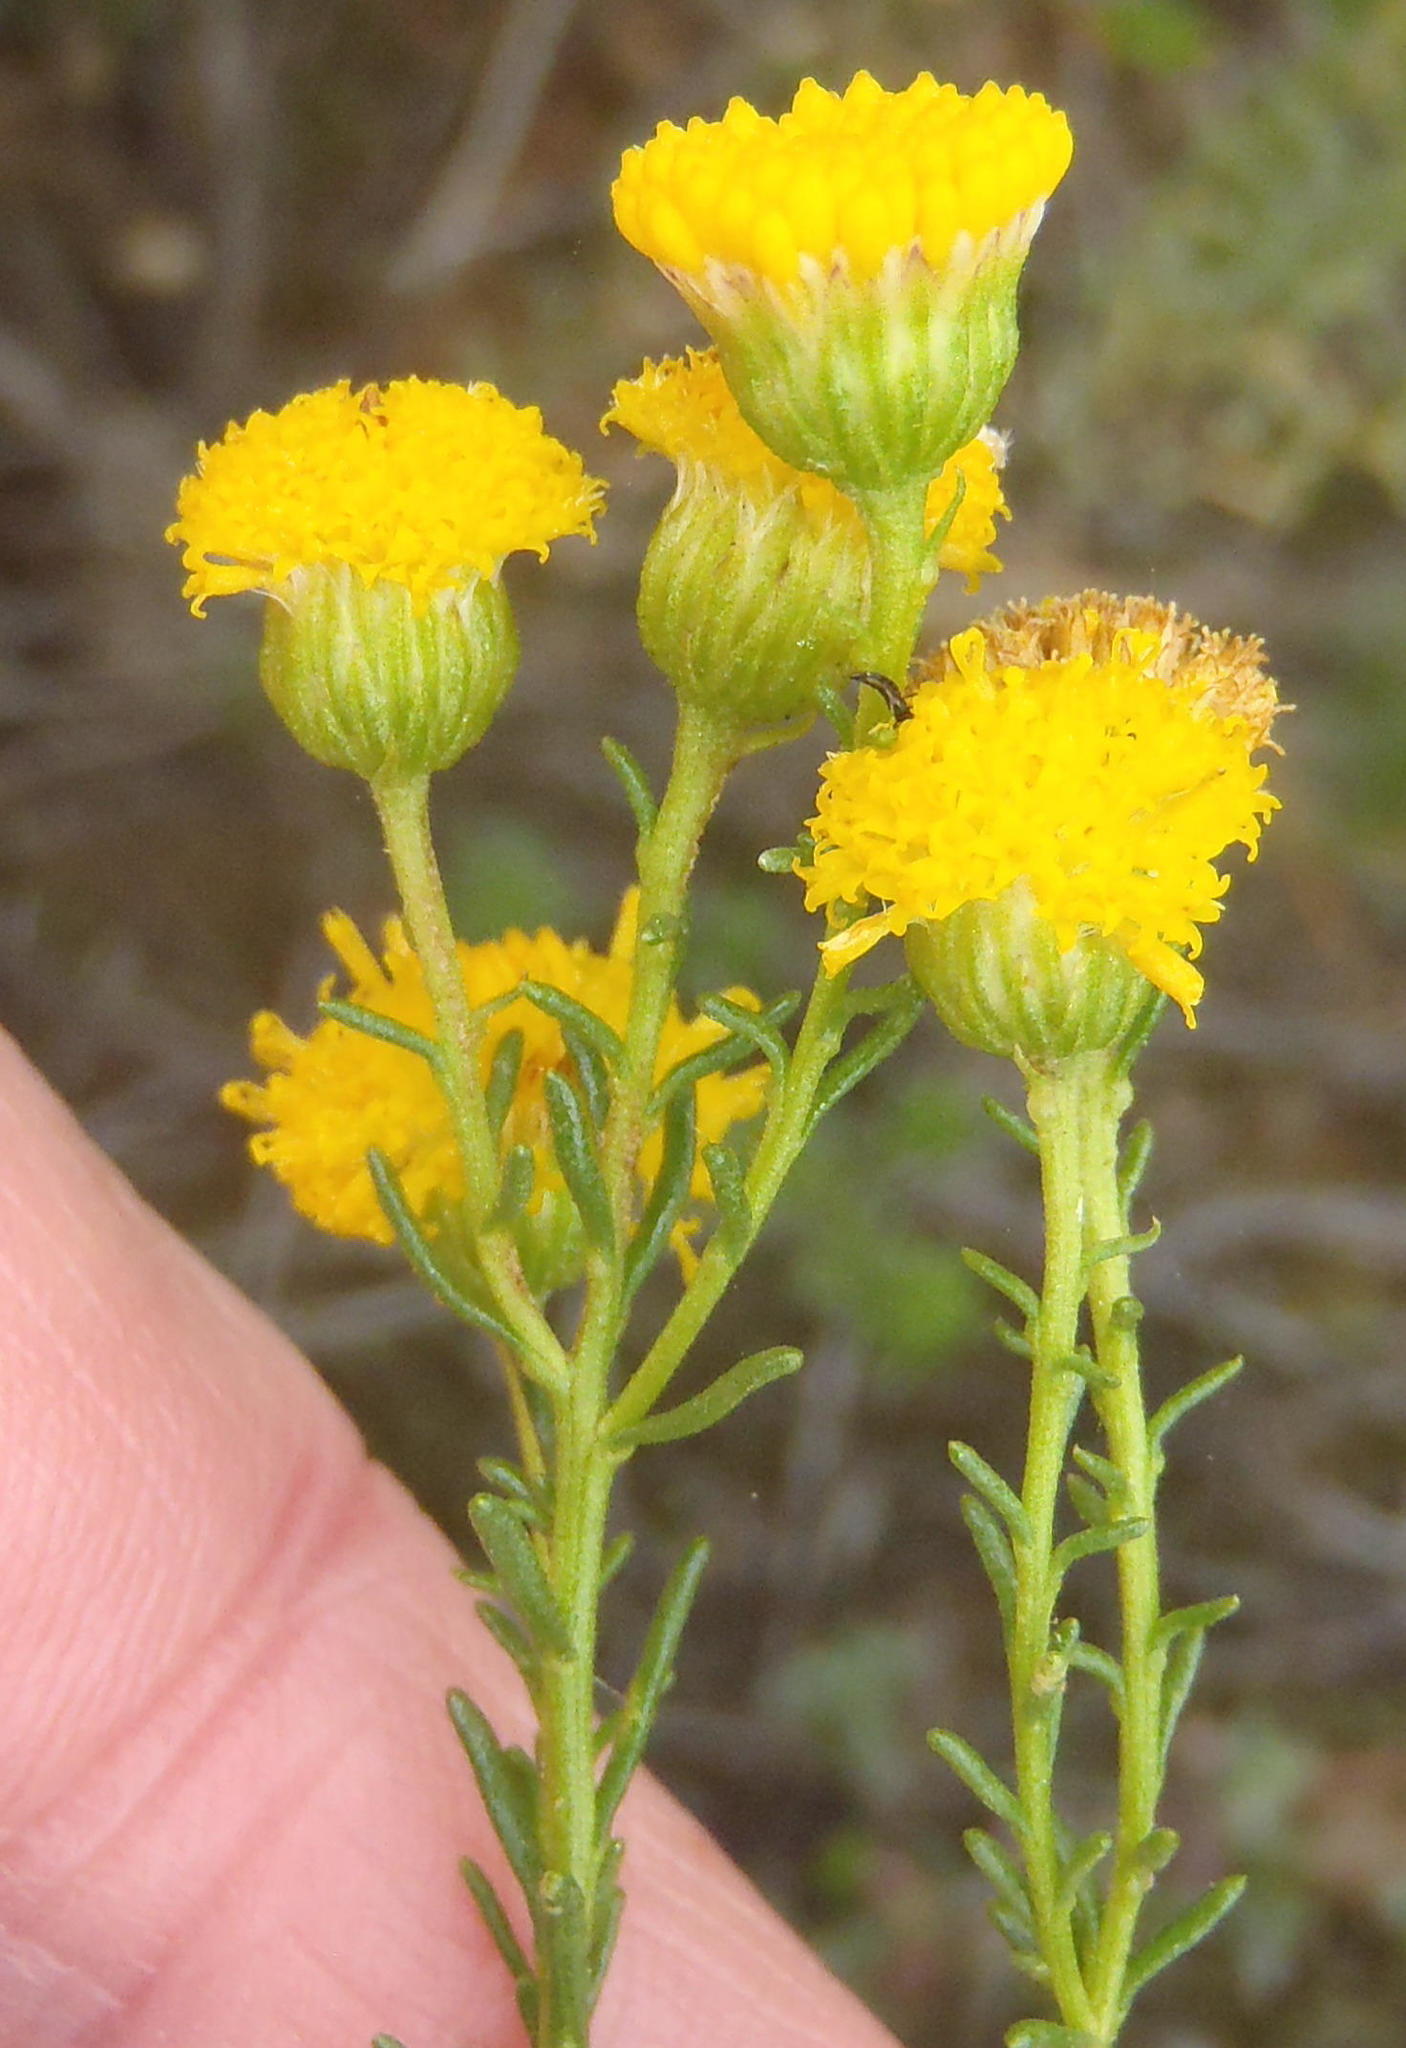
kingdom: Plantae
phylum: Tracheophyta
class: Magnoliopsida
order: Asterales
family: Asteraceae
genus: Chrysocoma
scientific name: Chrysocoma ciliata
